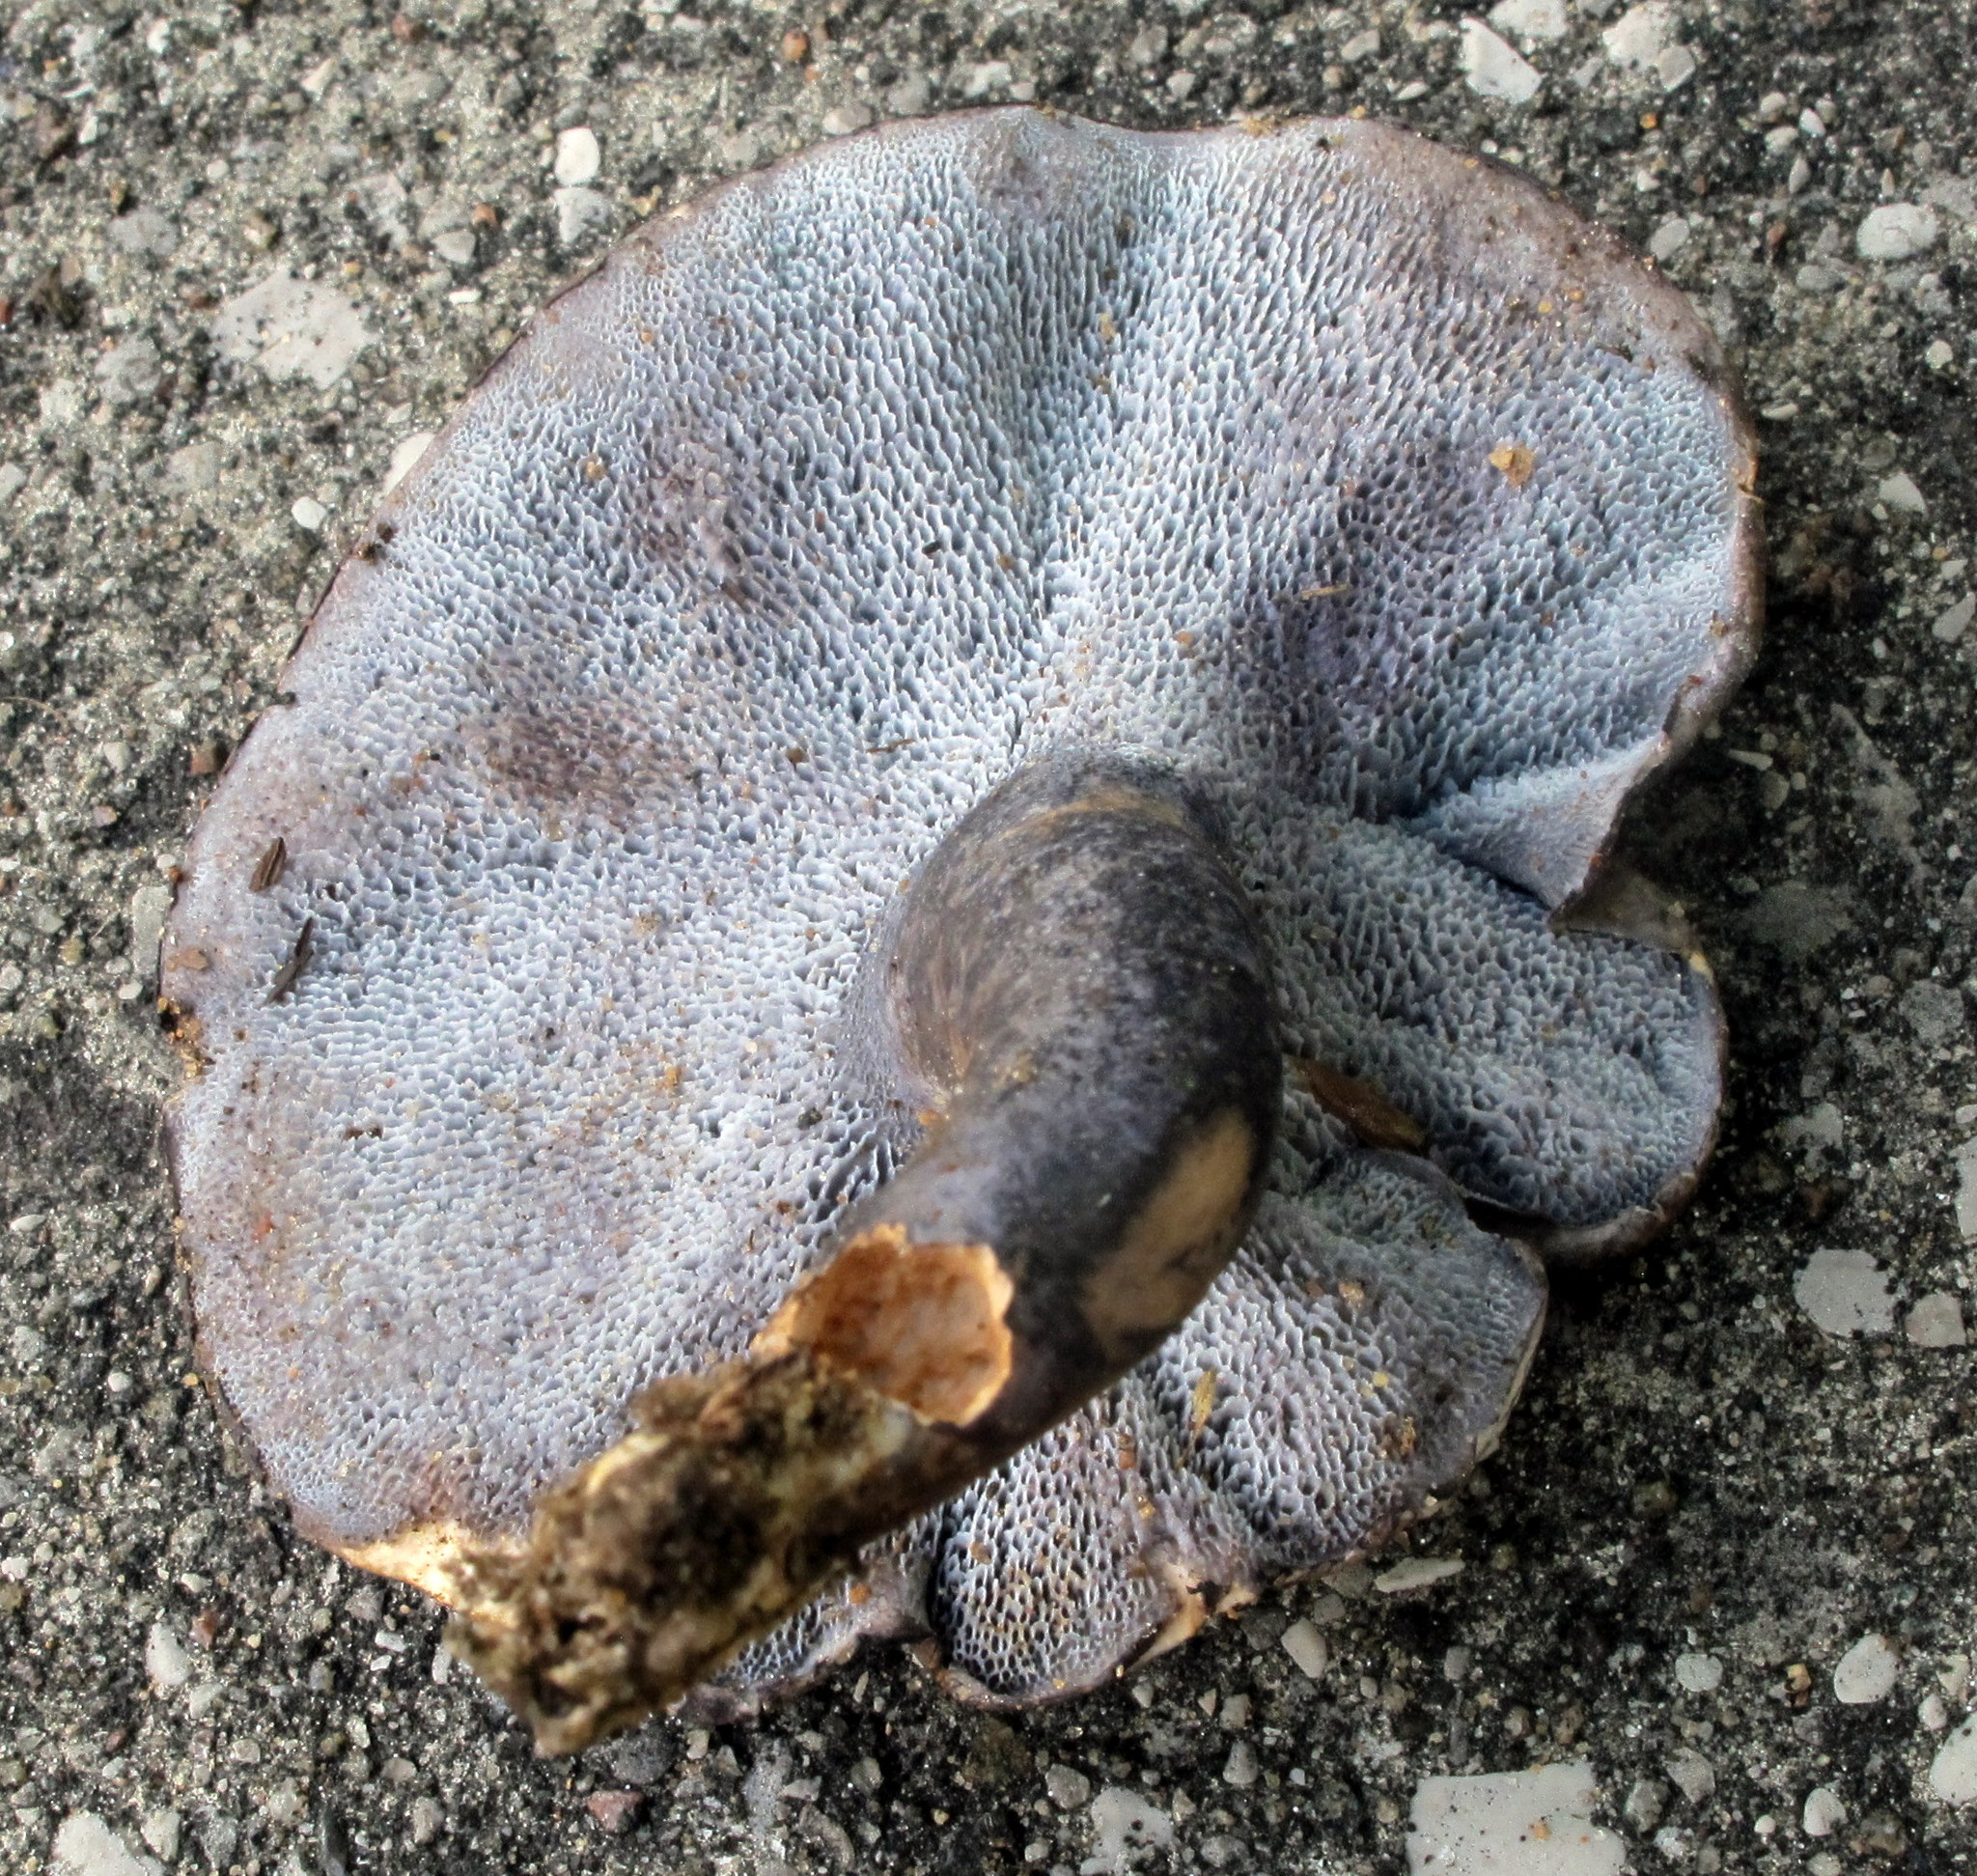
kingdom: Fungi
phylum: Basidiomycota
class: Agaricomycetes
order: Russulales
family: Albatrellaceae
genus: Neoalbatrellus
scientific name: Neoalbatrellus caeruleoporus
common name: Blue polypore
